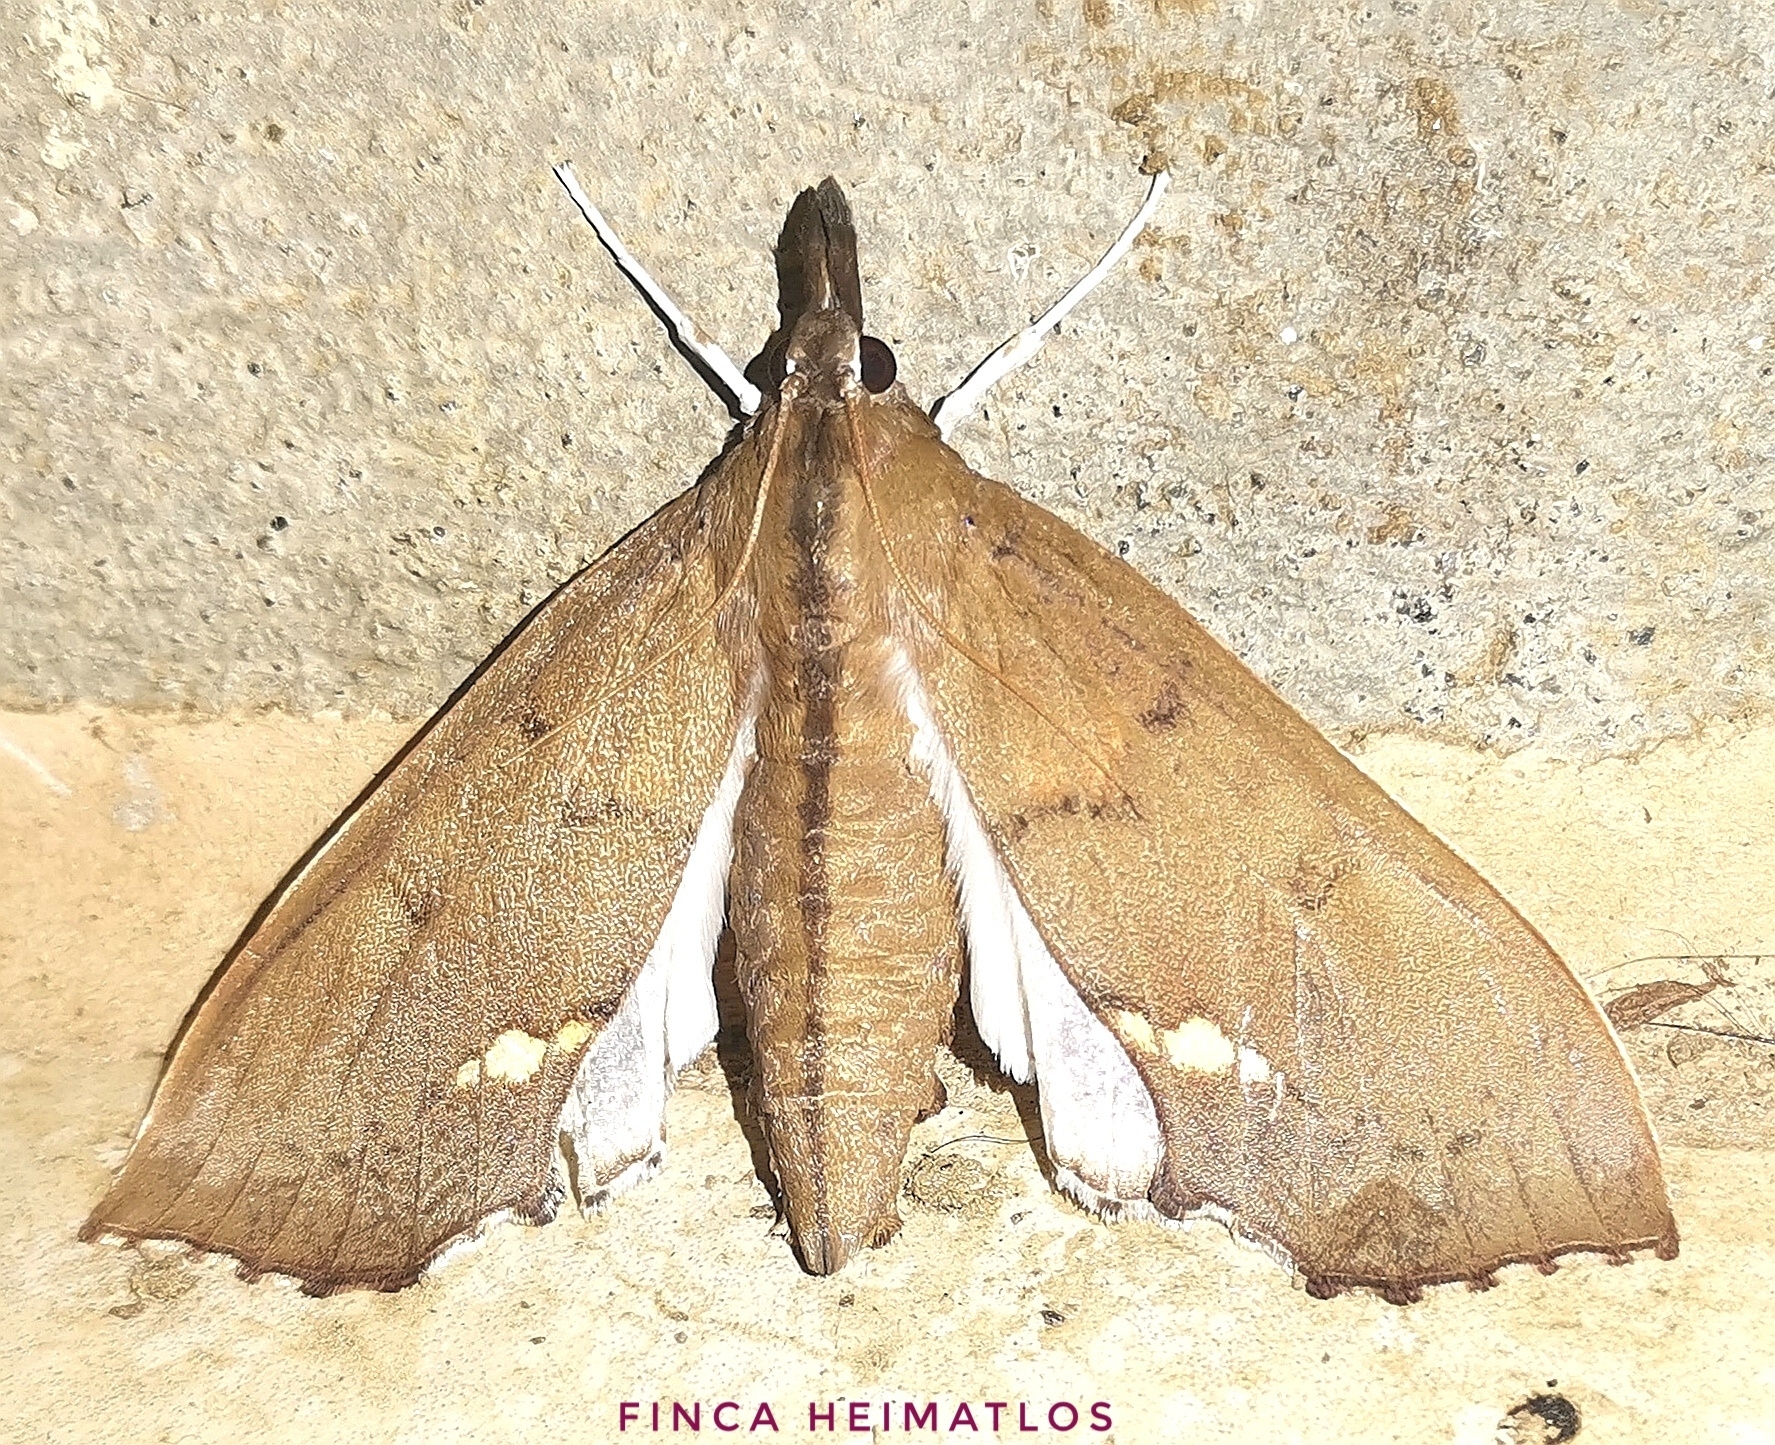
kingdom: Animalia
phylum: Arthropoda
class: Insecta
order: Lepidoptera
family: Crambidae
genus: Liopasia
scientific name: Liopasia andrealis
